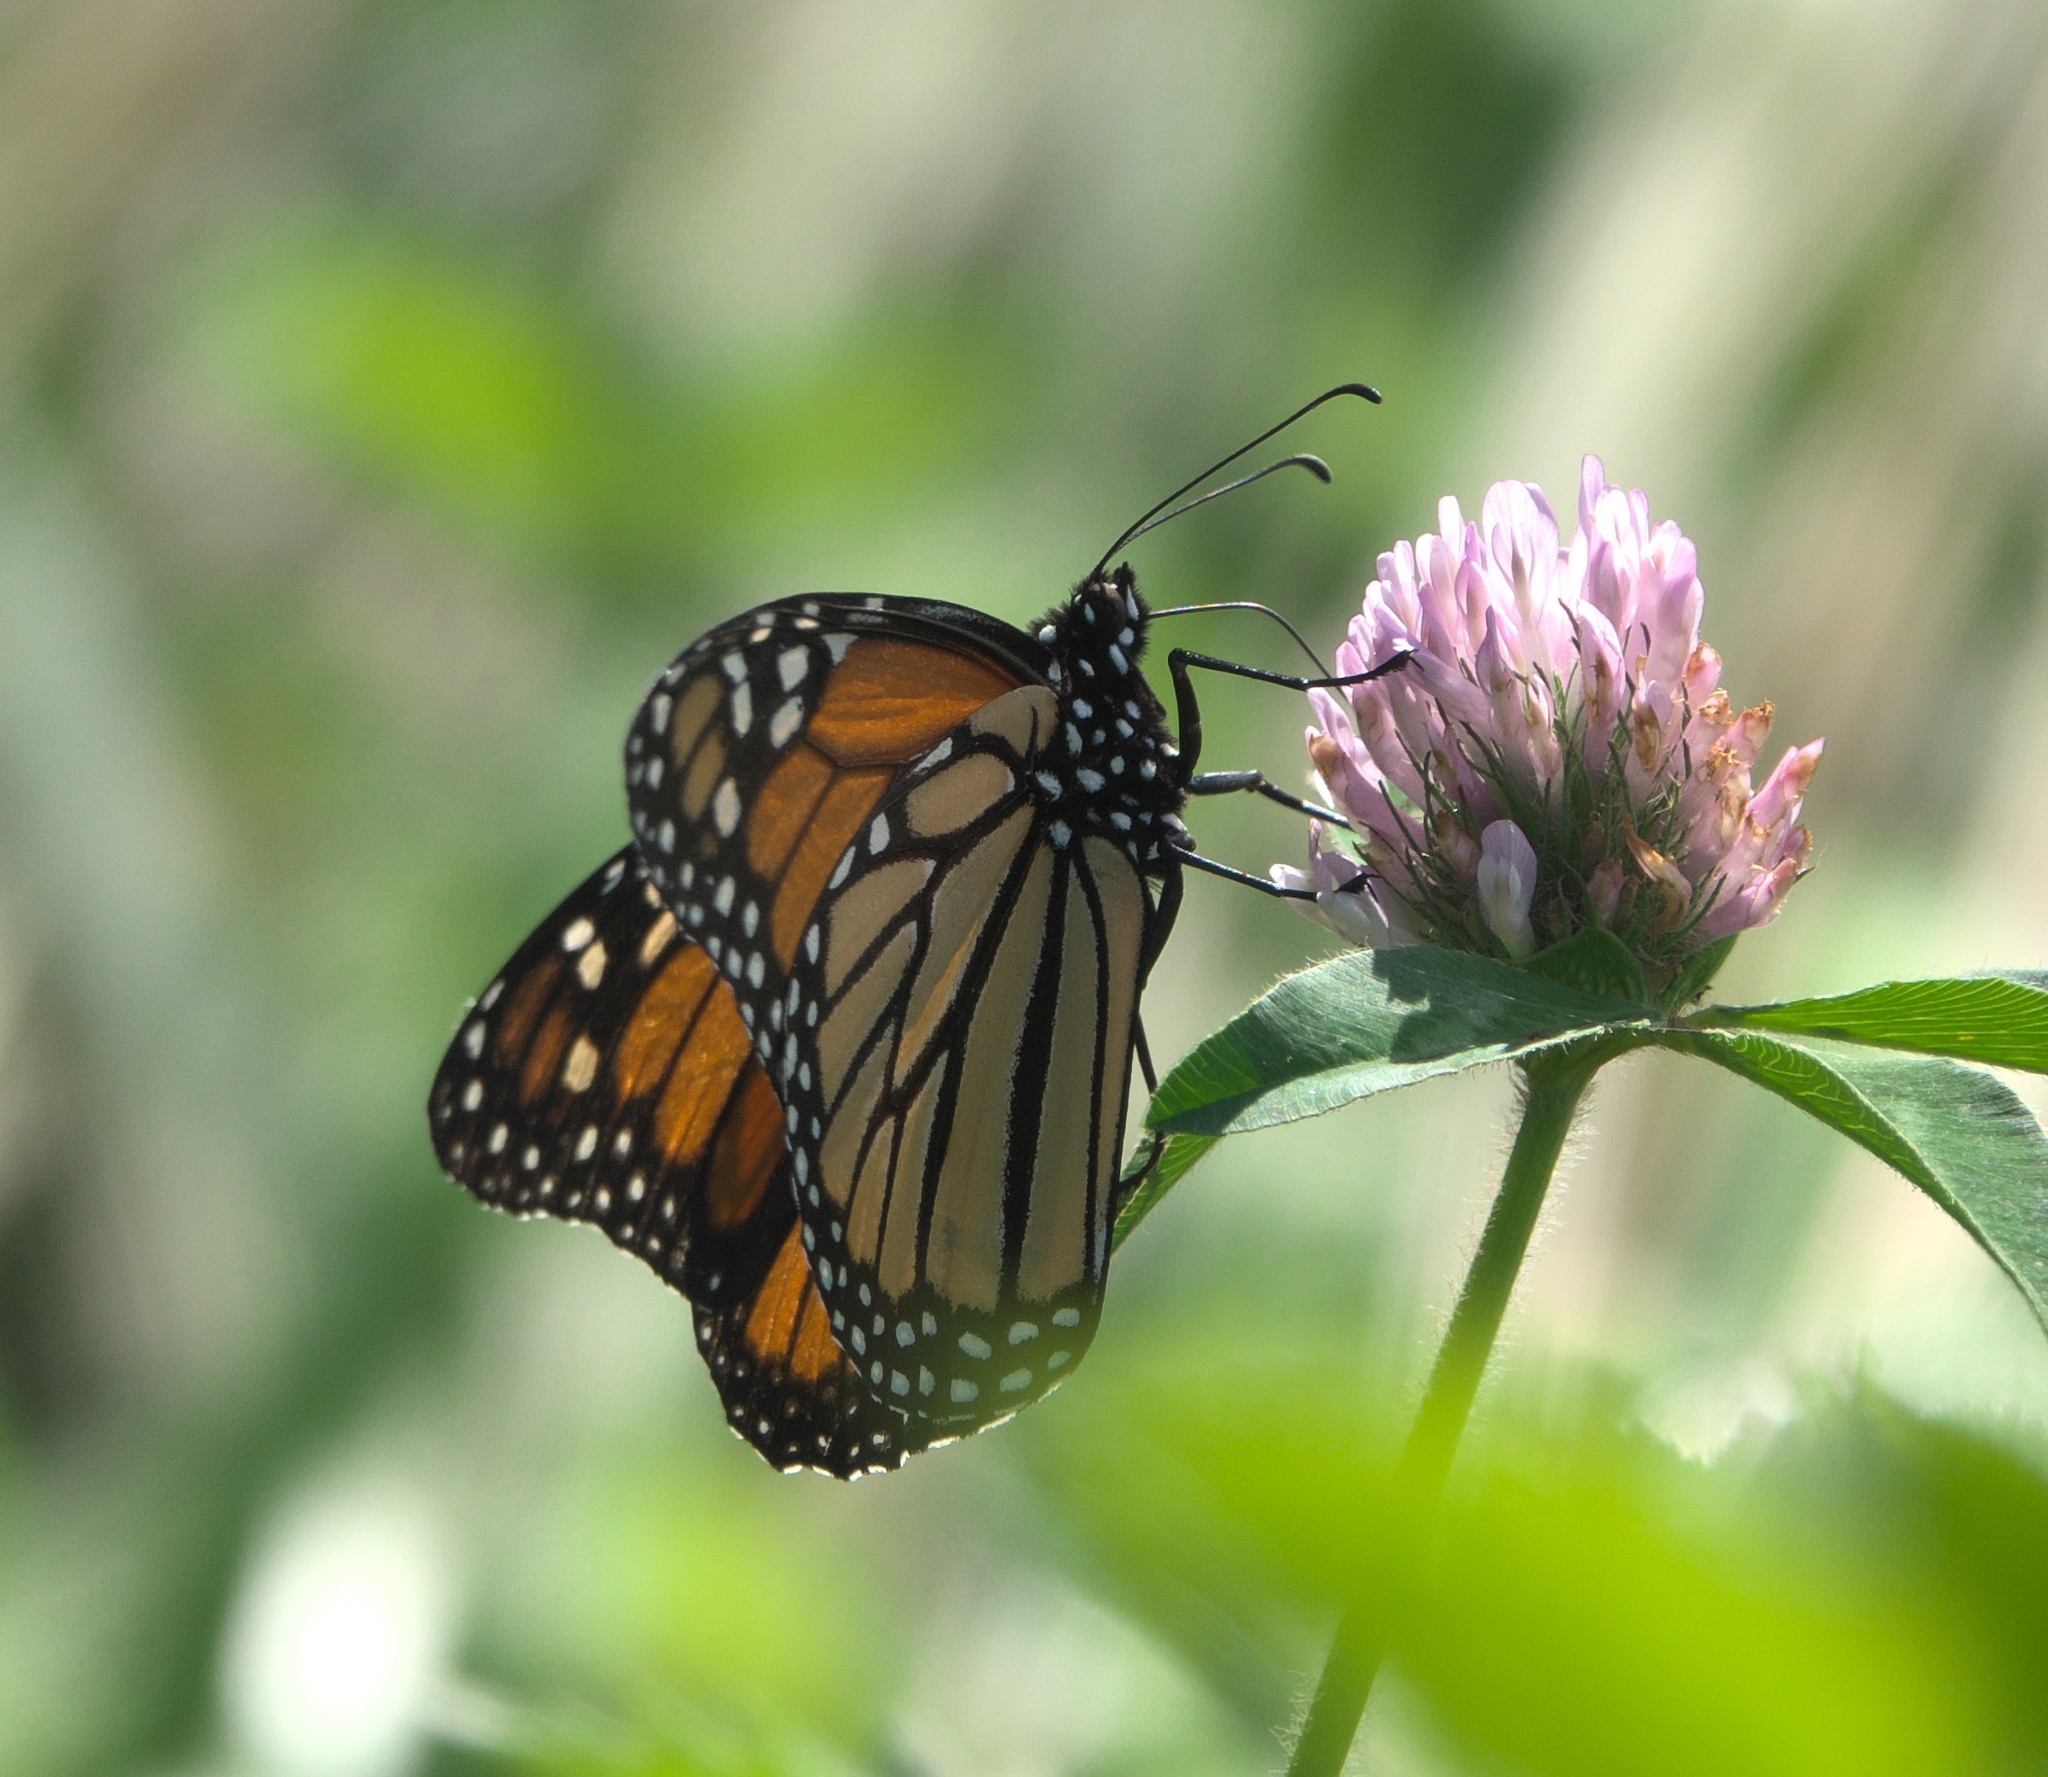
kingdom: Animalia
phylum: Arthropoda
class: Insecta
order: Lepidoptera
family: Nymphalidae
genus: Danaus
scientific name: Danaus plexippus
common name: Monarch
